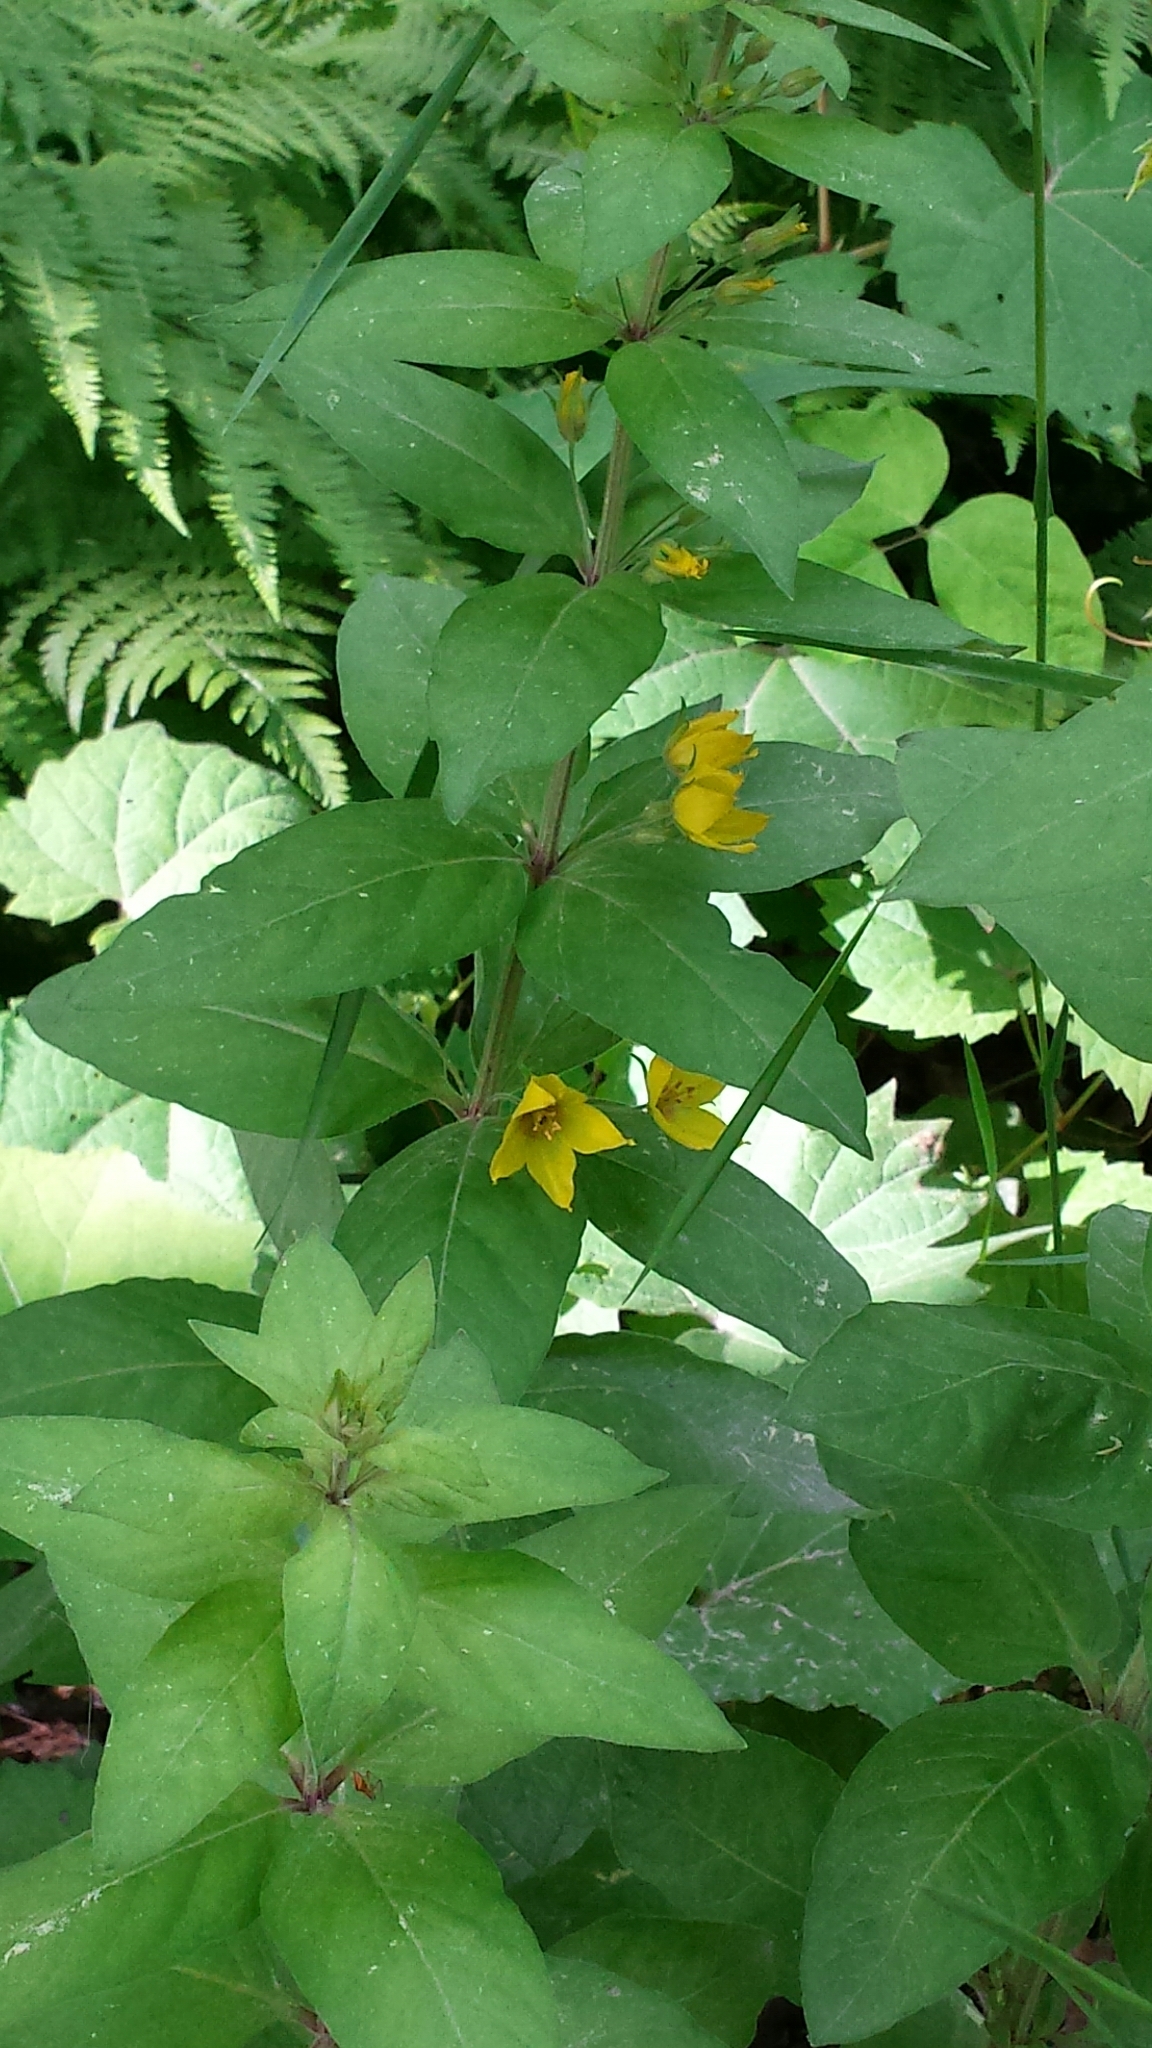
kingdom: Plantae
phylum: Tracheophyta
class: Magnoliopsida
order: Ericales
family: Primulaceae
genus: Lysimachia
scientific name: Lysimachia quadrifolia
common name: Whorled loosestrife
